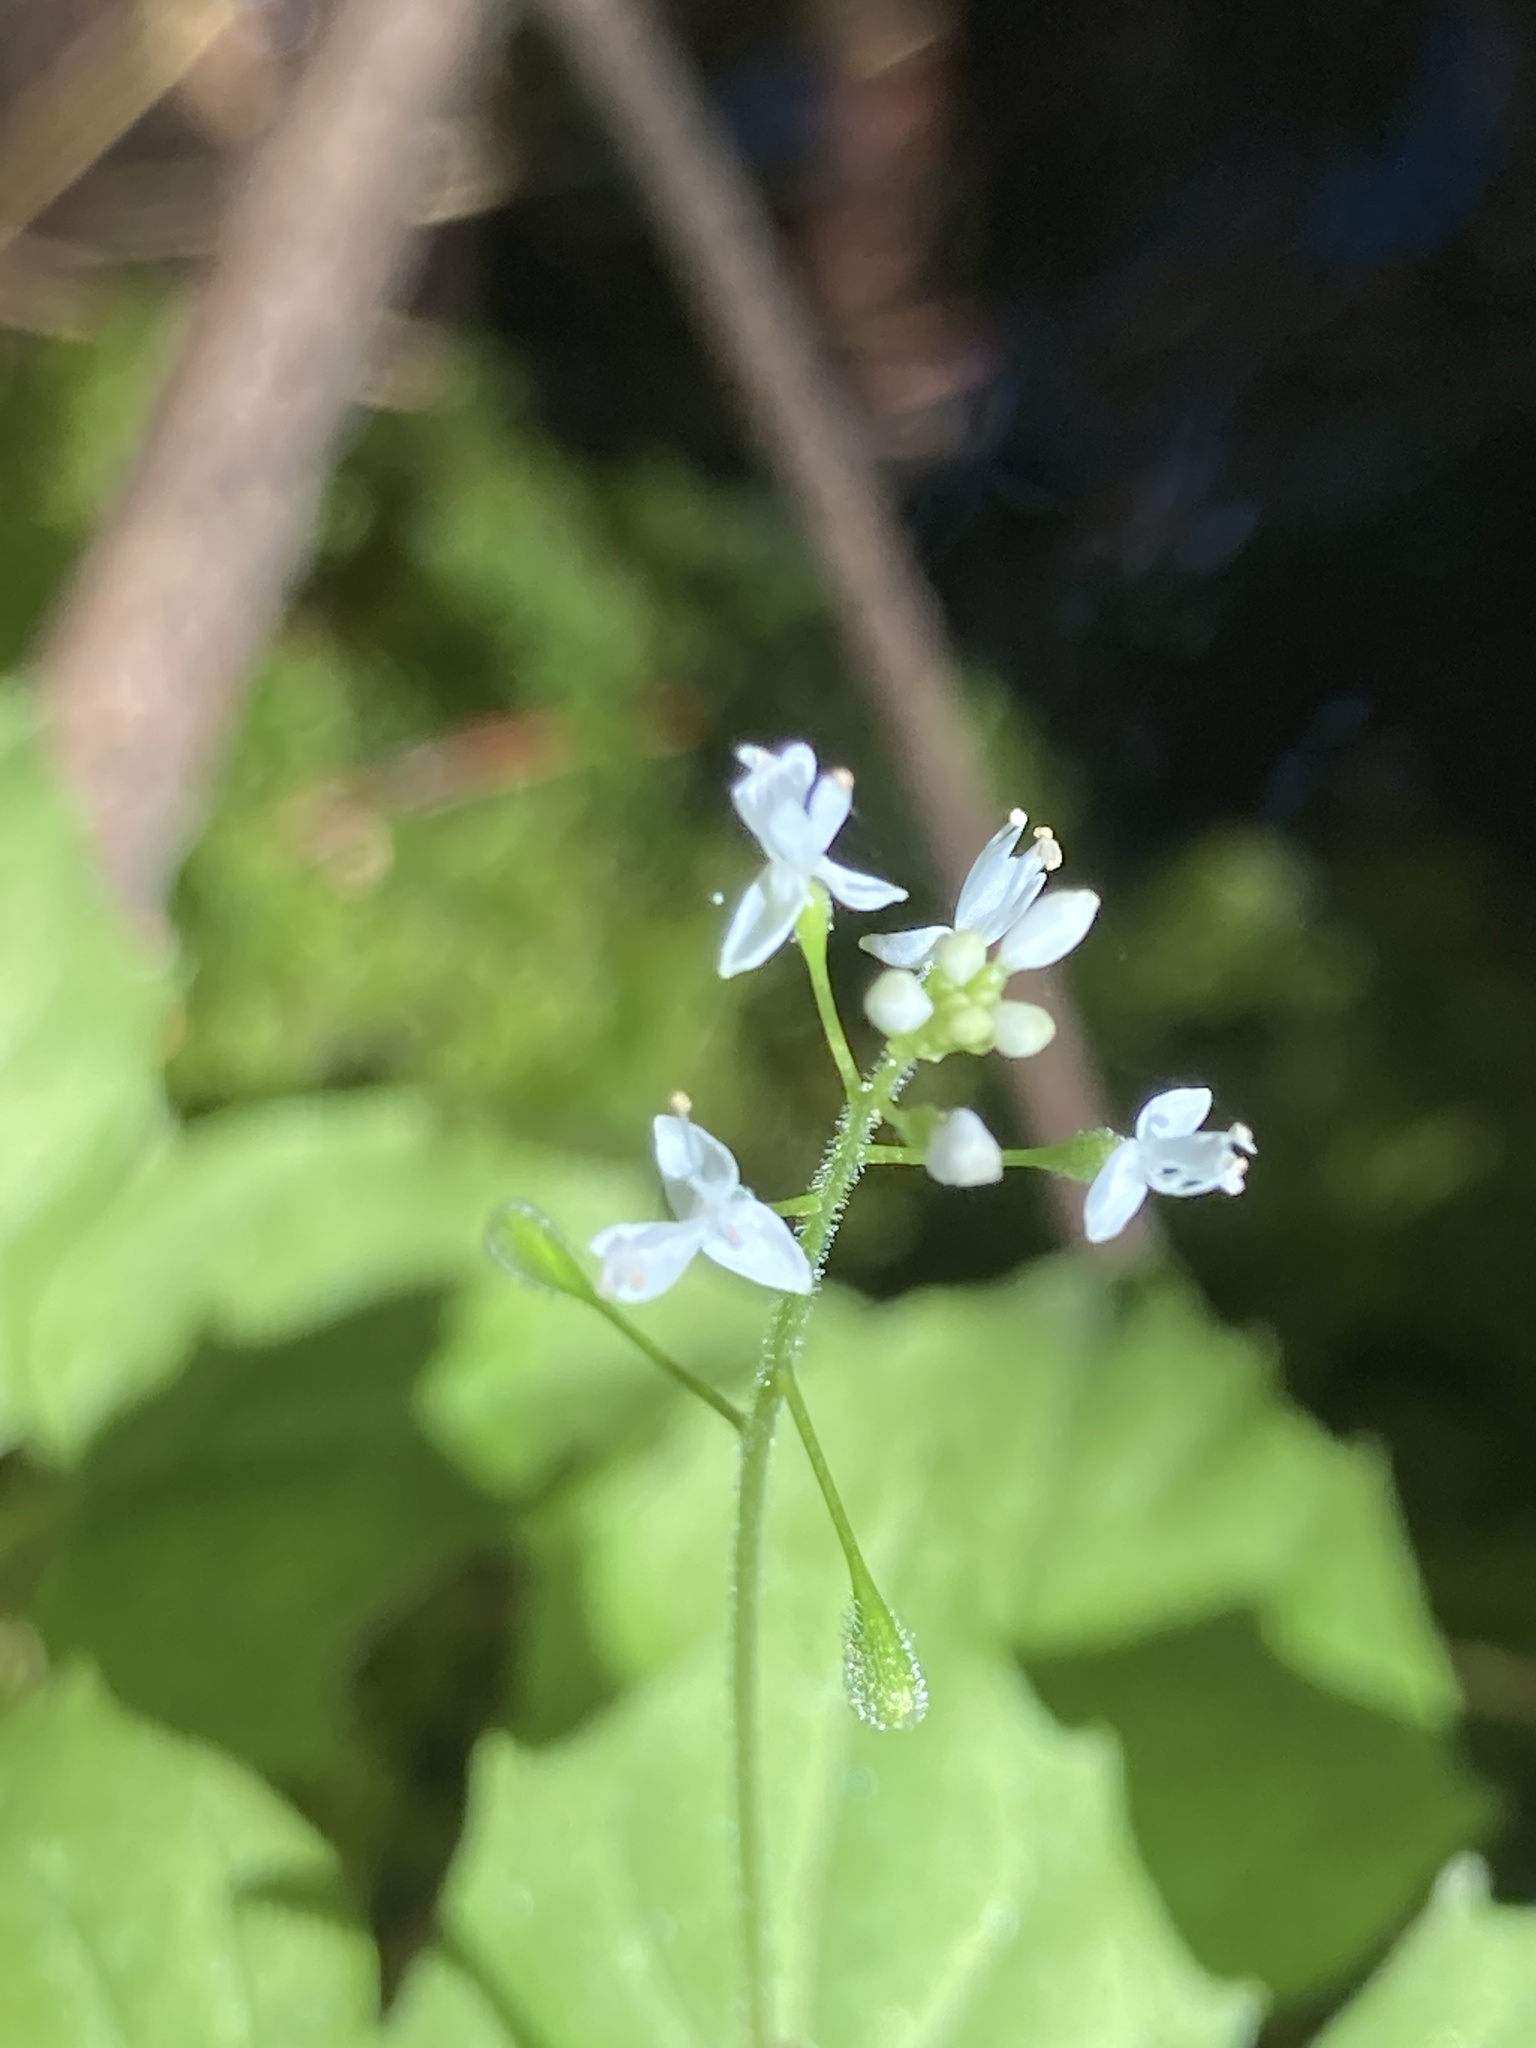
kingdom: Plantae
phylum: Tracheophyta
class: Magnoliopsida
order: Myrtales
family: Onagraceae
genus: Circaea
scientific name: Circaea alpina
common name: Alpine enchanter's-nightshade
